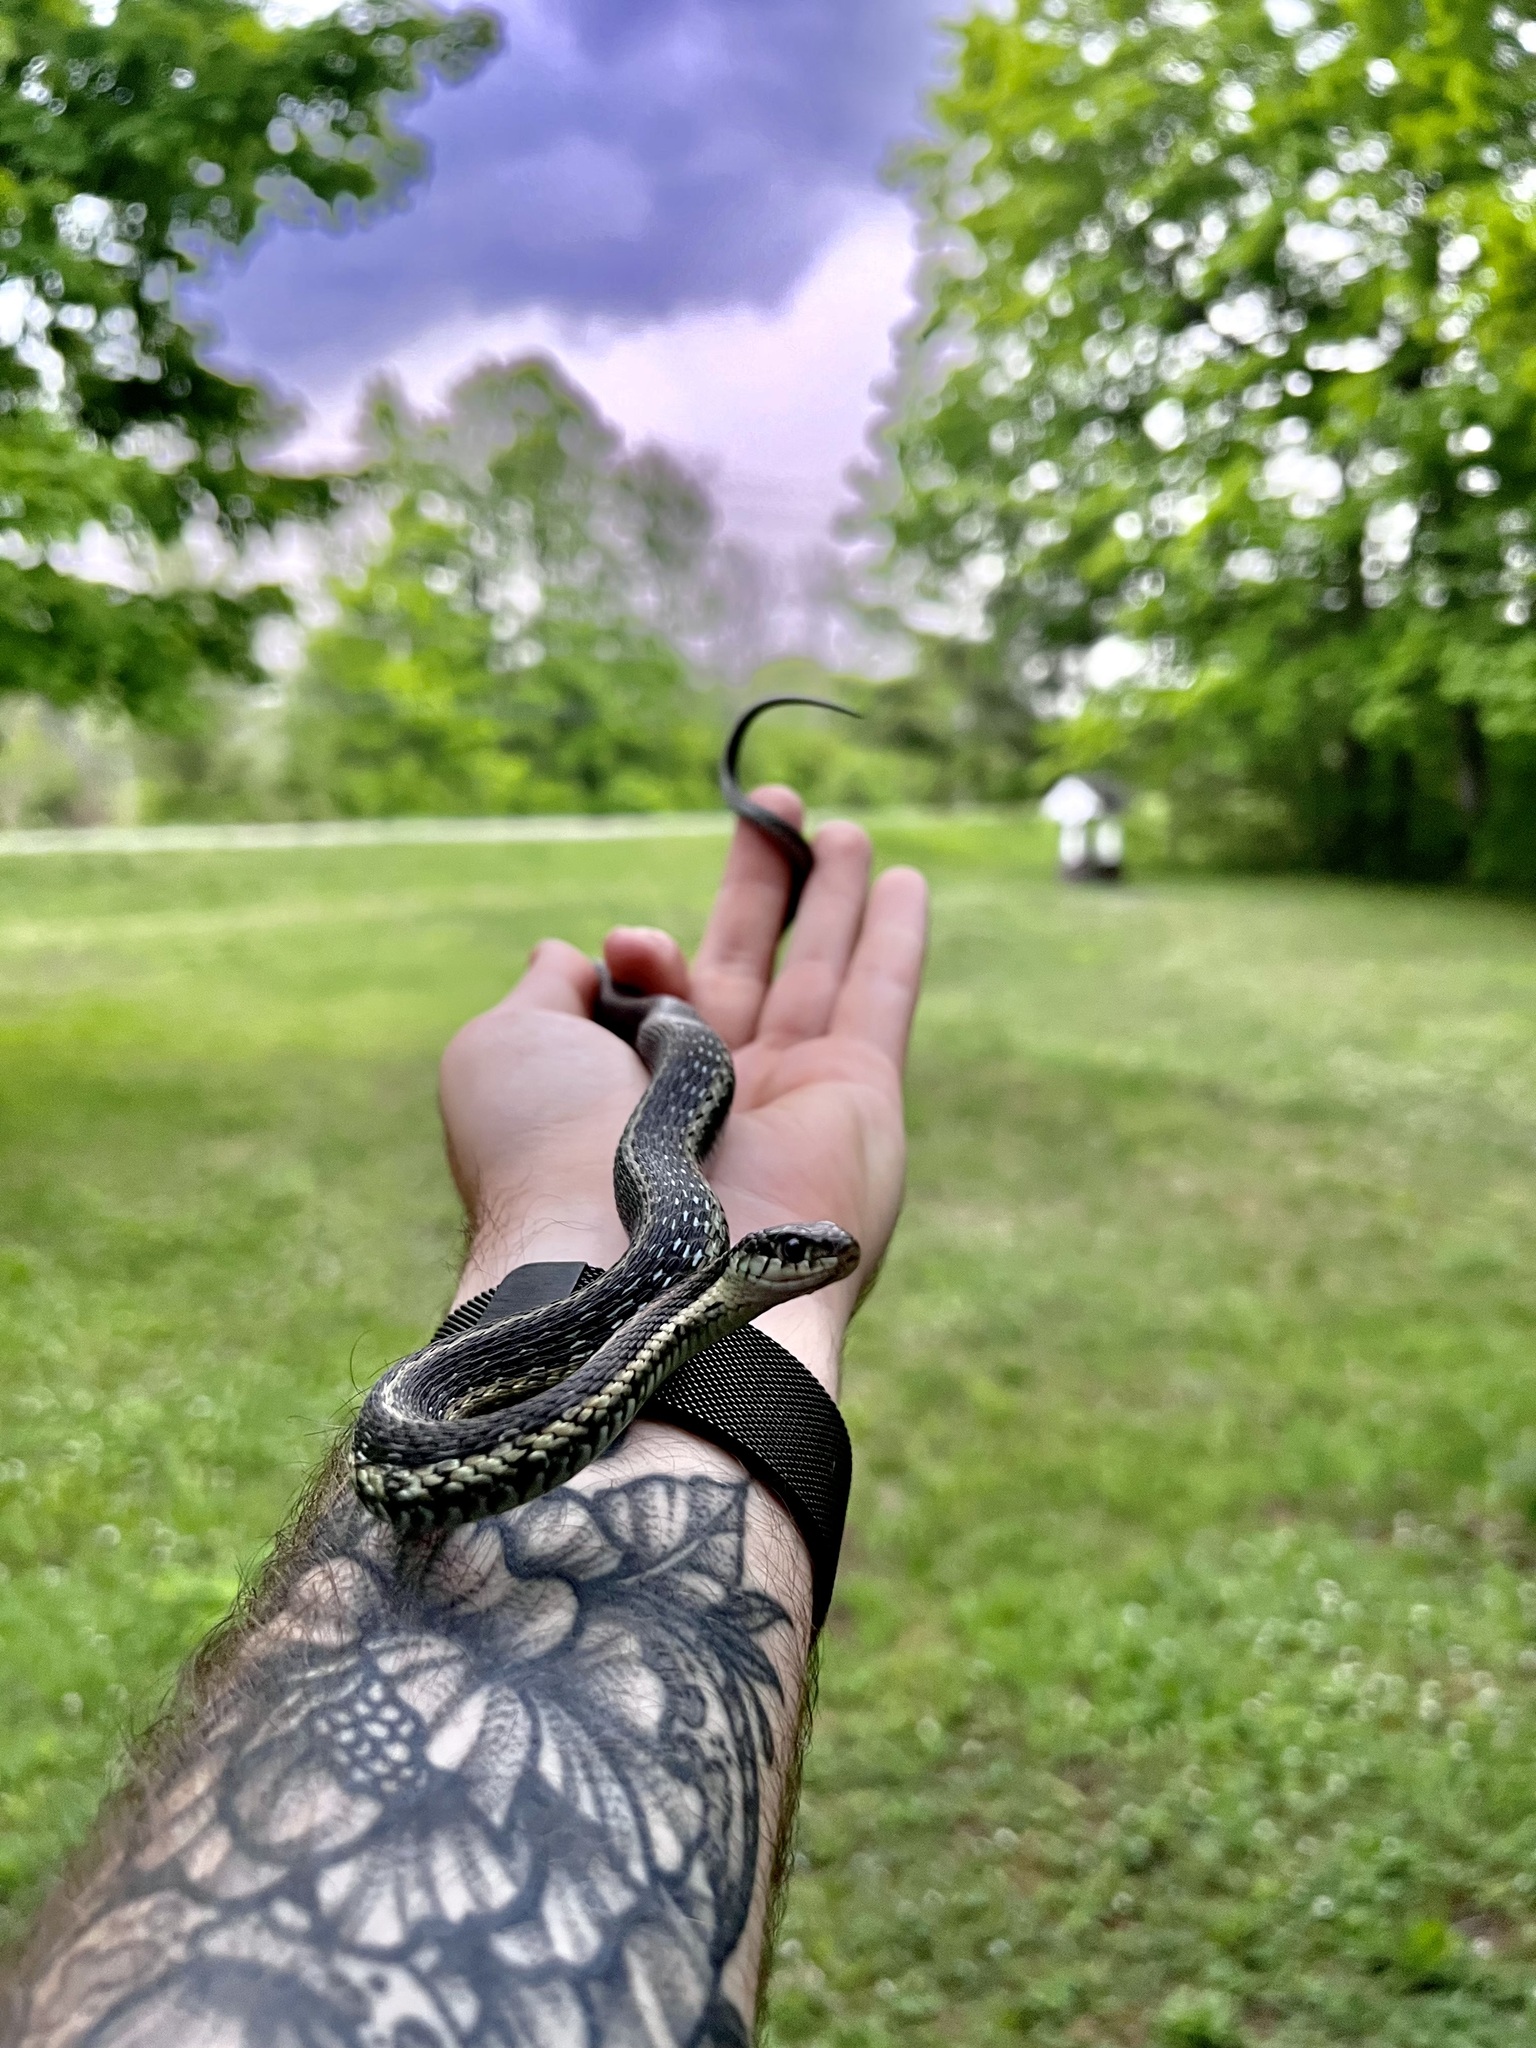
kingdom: Animalia
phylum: Chordata
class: Squamata
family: Colubridae
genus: Thamnophis
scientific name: Thamnophis sirtalis
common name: Common garter snake
